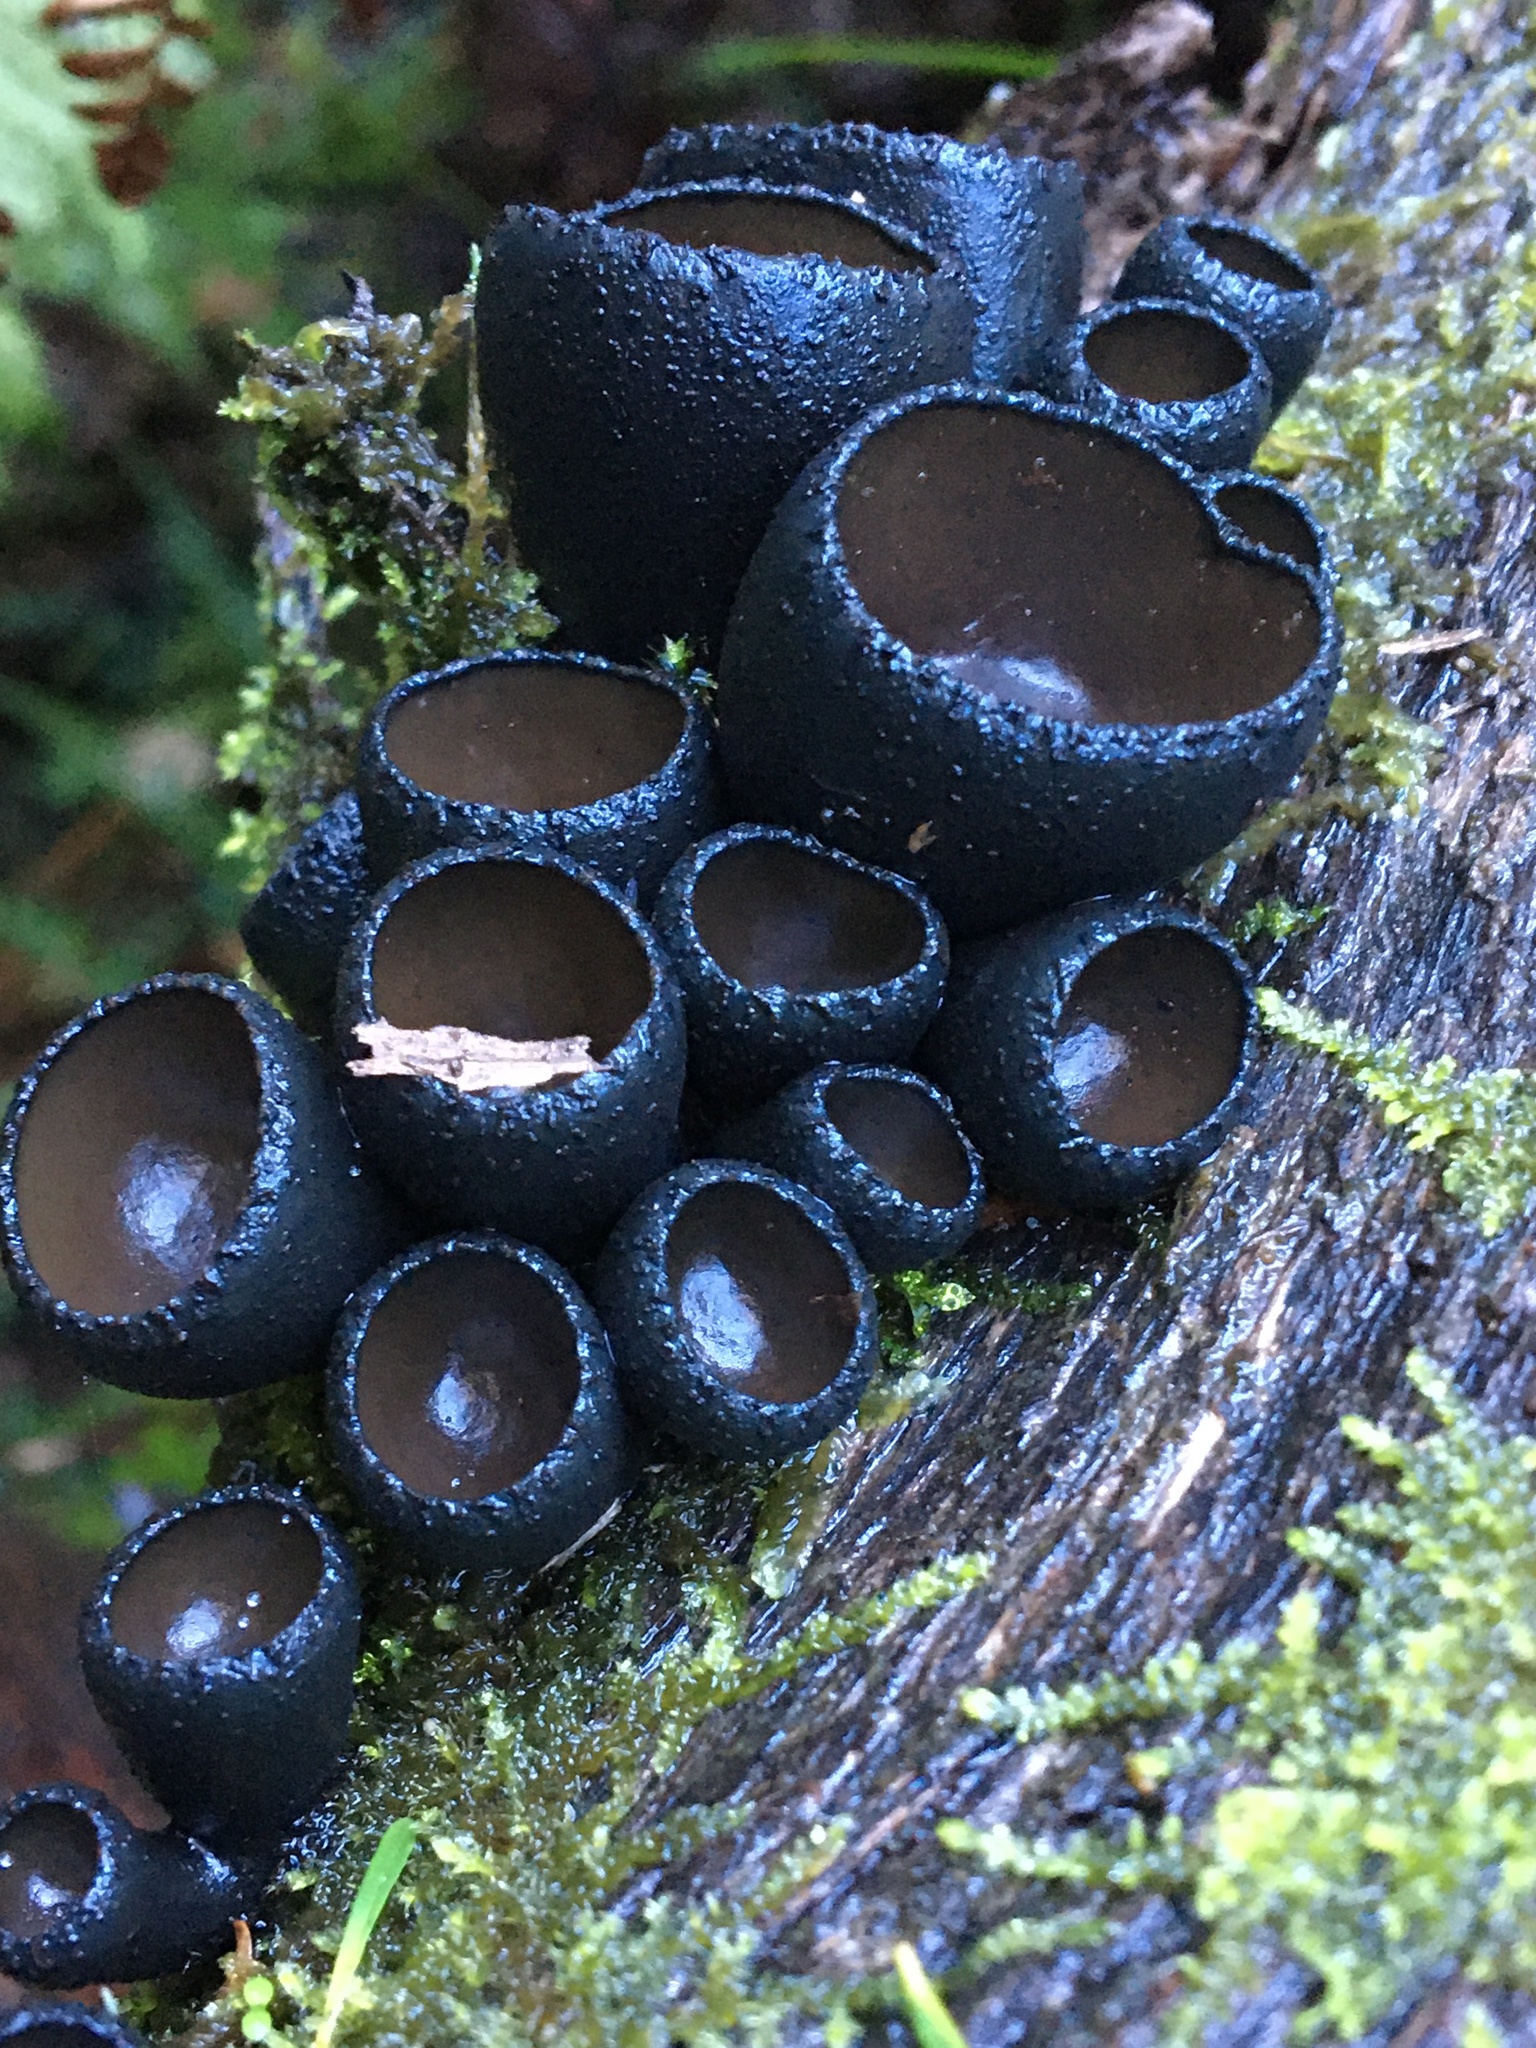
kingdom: Fungi
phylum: Ascomycota
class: Pezizomycetes
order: Pezizales
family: Sarcosomataceae
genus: Plectania
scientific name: Plectania campylospora
